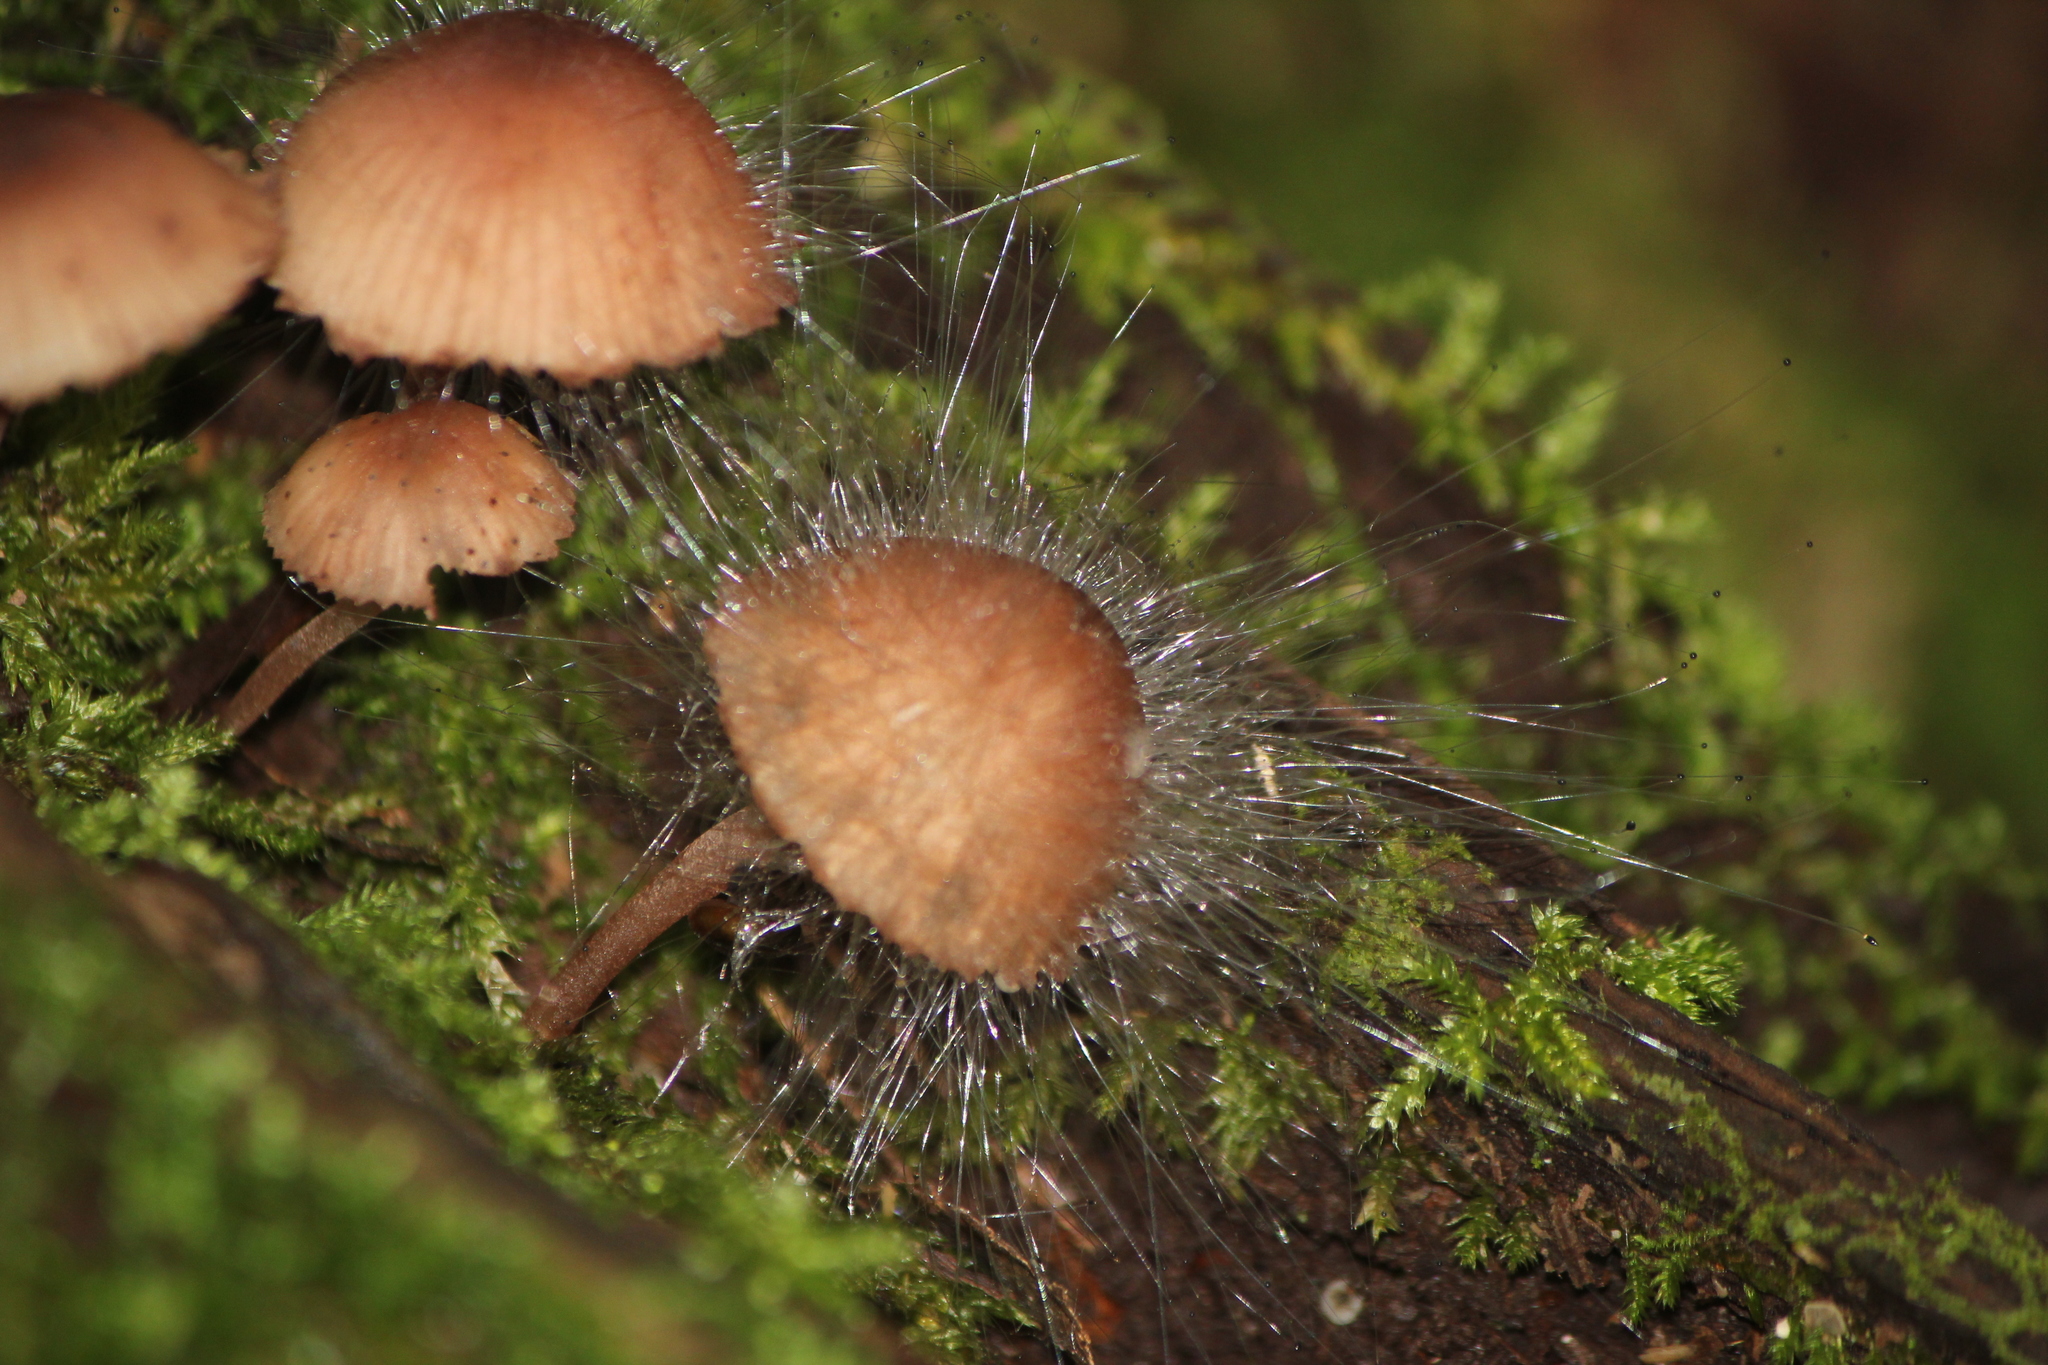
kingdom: Fungi
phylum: Mucoromycota
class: Mucoromycetes
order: Mucorales
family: Phycomycetaceae
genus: Spinellus
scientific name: Spinellus fusiger
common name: Bonnet mould
